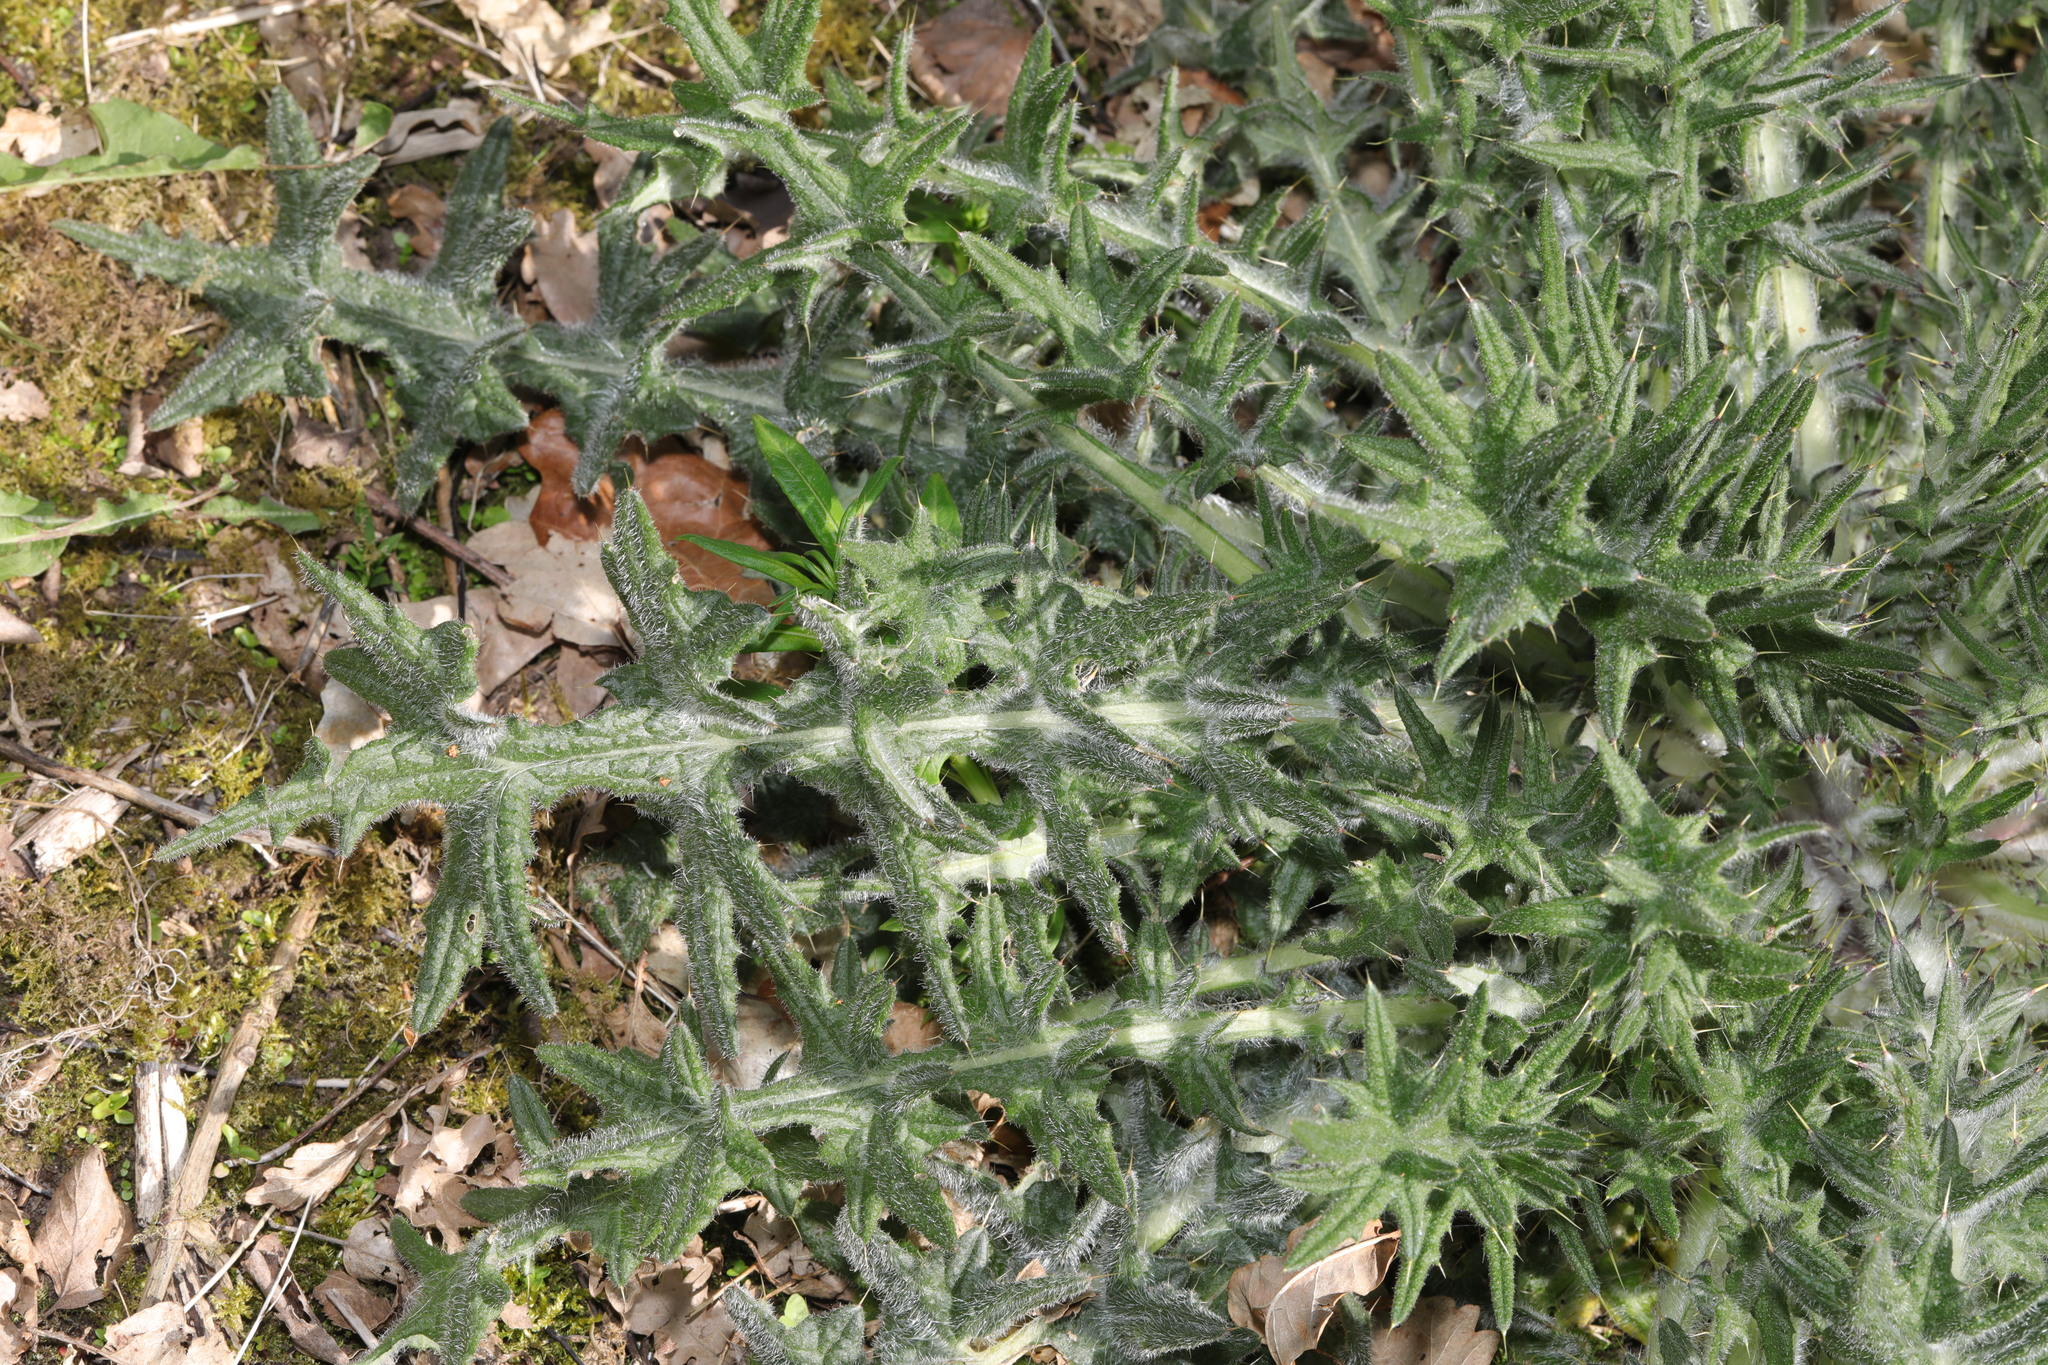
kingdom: Plantae
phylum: Tracheophyta
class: Magnoliopsida
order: Asterales
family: Asteraceae
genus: Cirsium
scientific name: Cirsium vulgare
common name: Bull thistle
